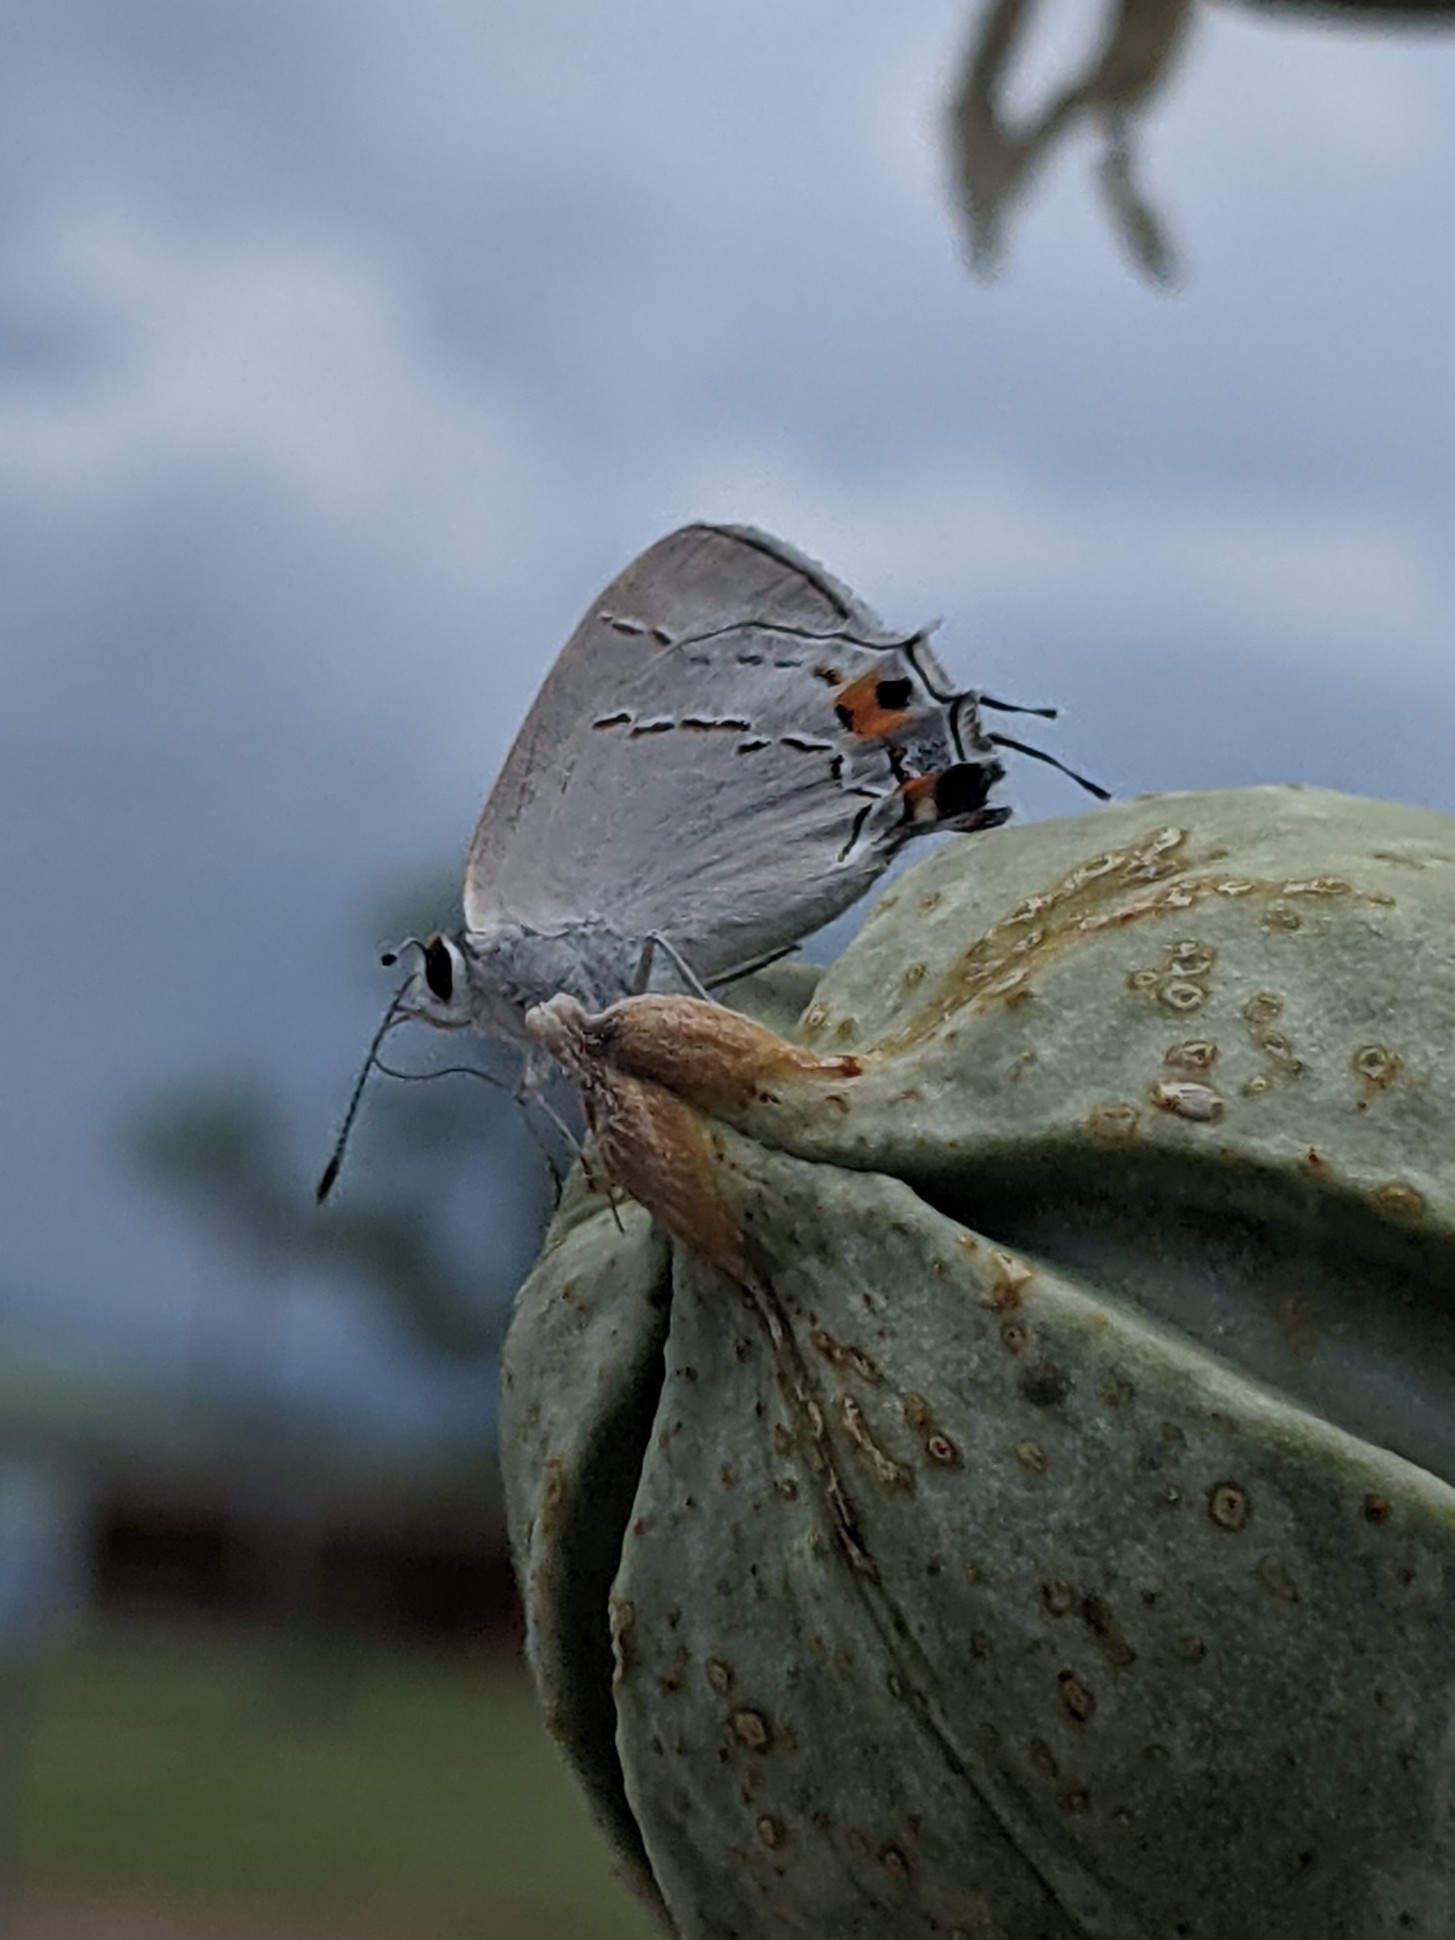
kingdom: Animalia
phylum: Arthropoda
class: Insecta
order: Lepidoptera
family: Lycaenidae
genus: Strymon
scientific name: Strymon melinus
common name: Gray hairstreak
